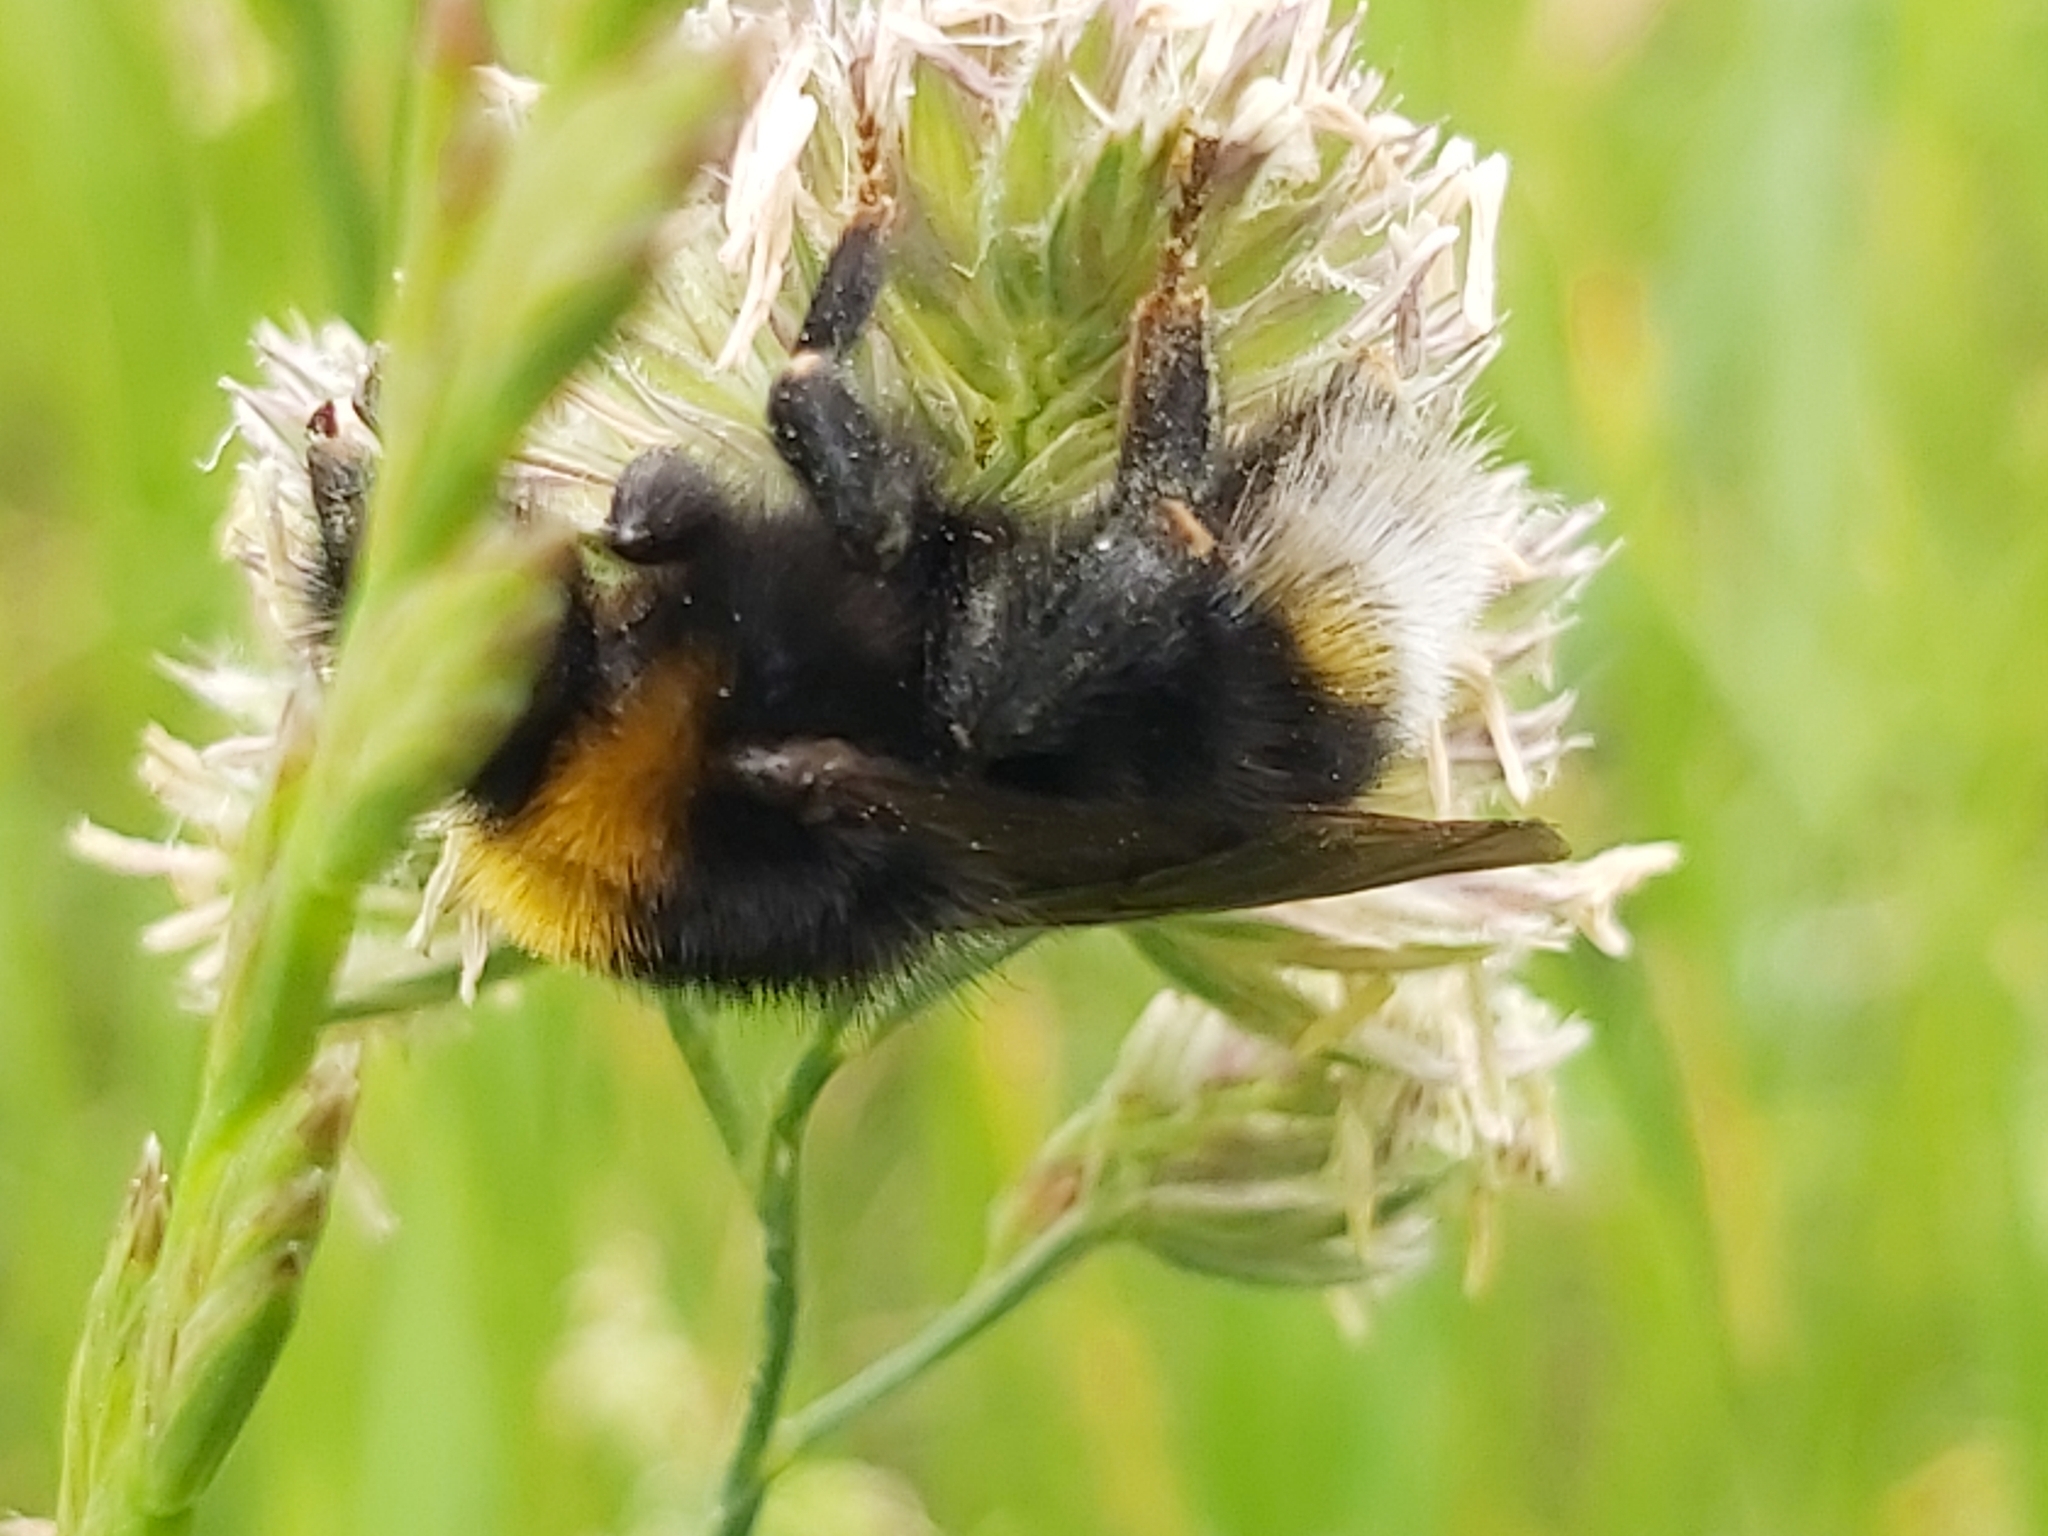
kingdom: Animalia
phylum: Arthropoda
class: Insecta
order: Hymenoptera
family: Apidae
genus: Bombus
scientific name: Bombus vestalis
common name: Vestal cuckoo bee
